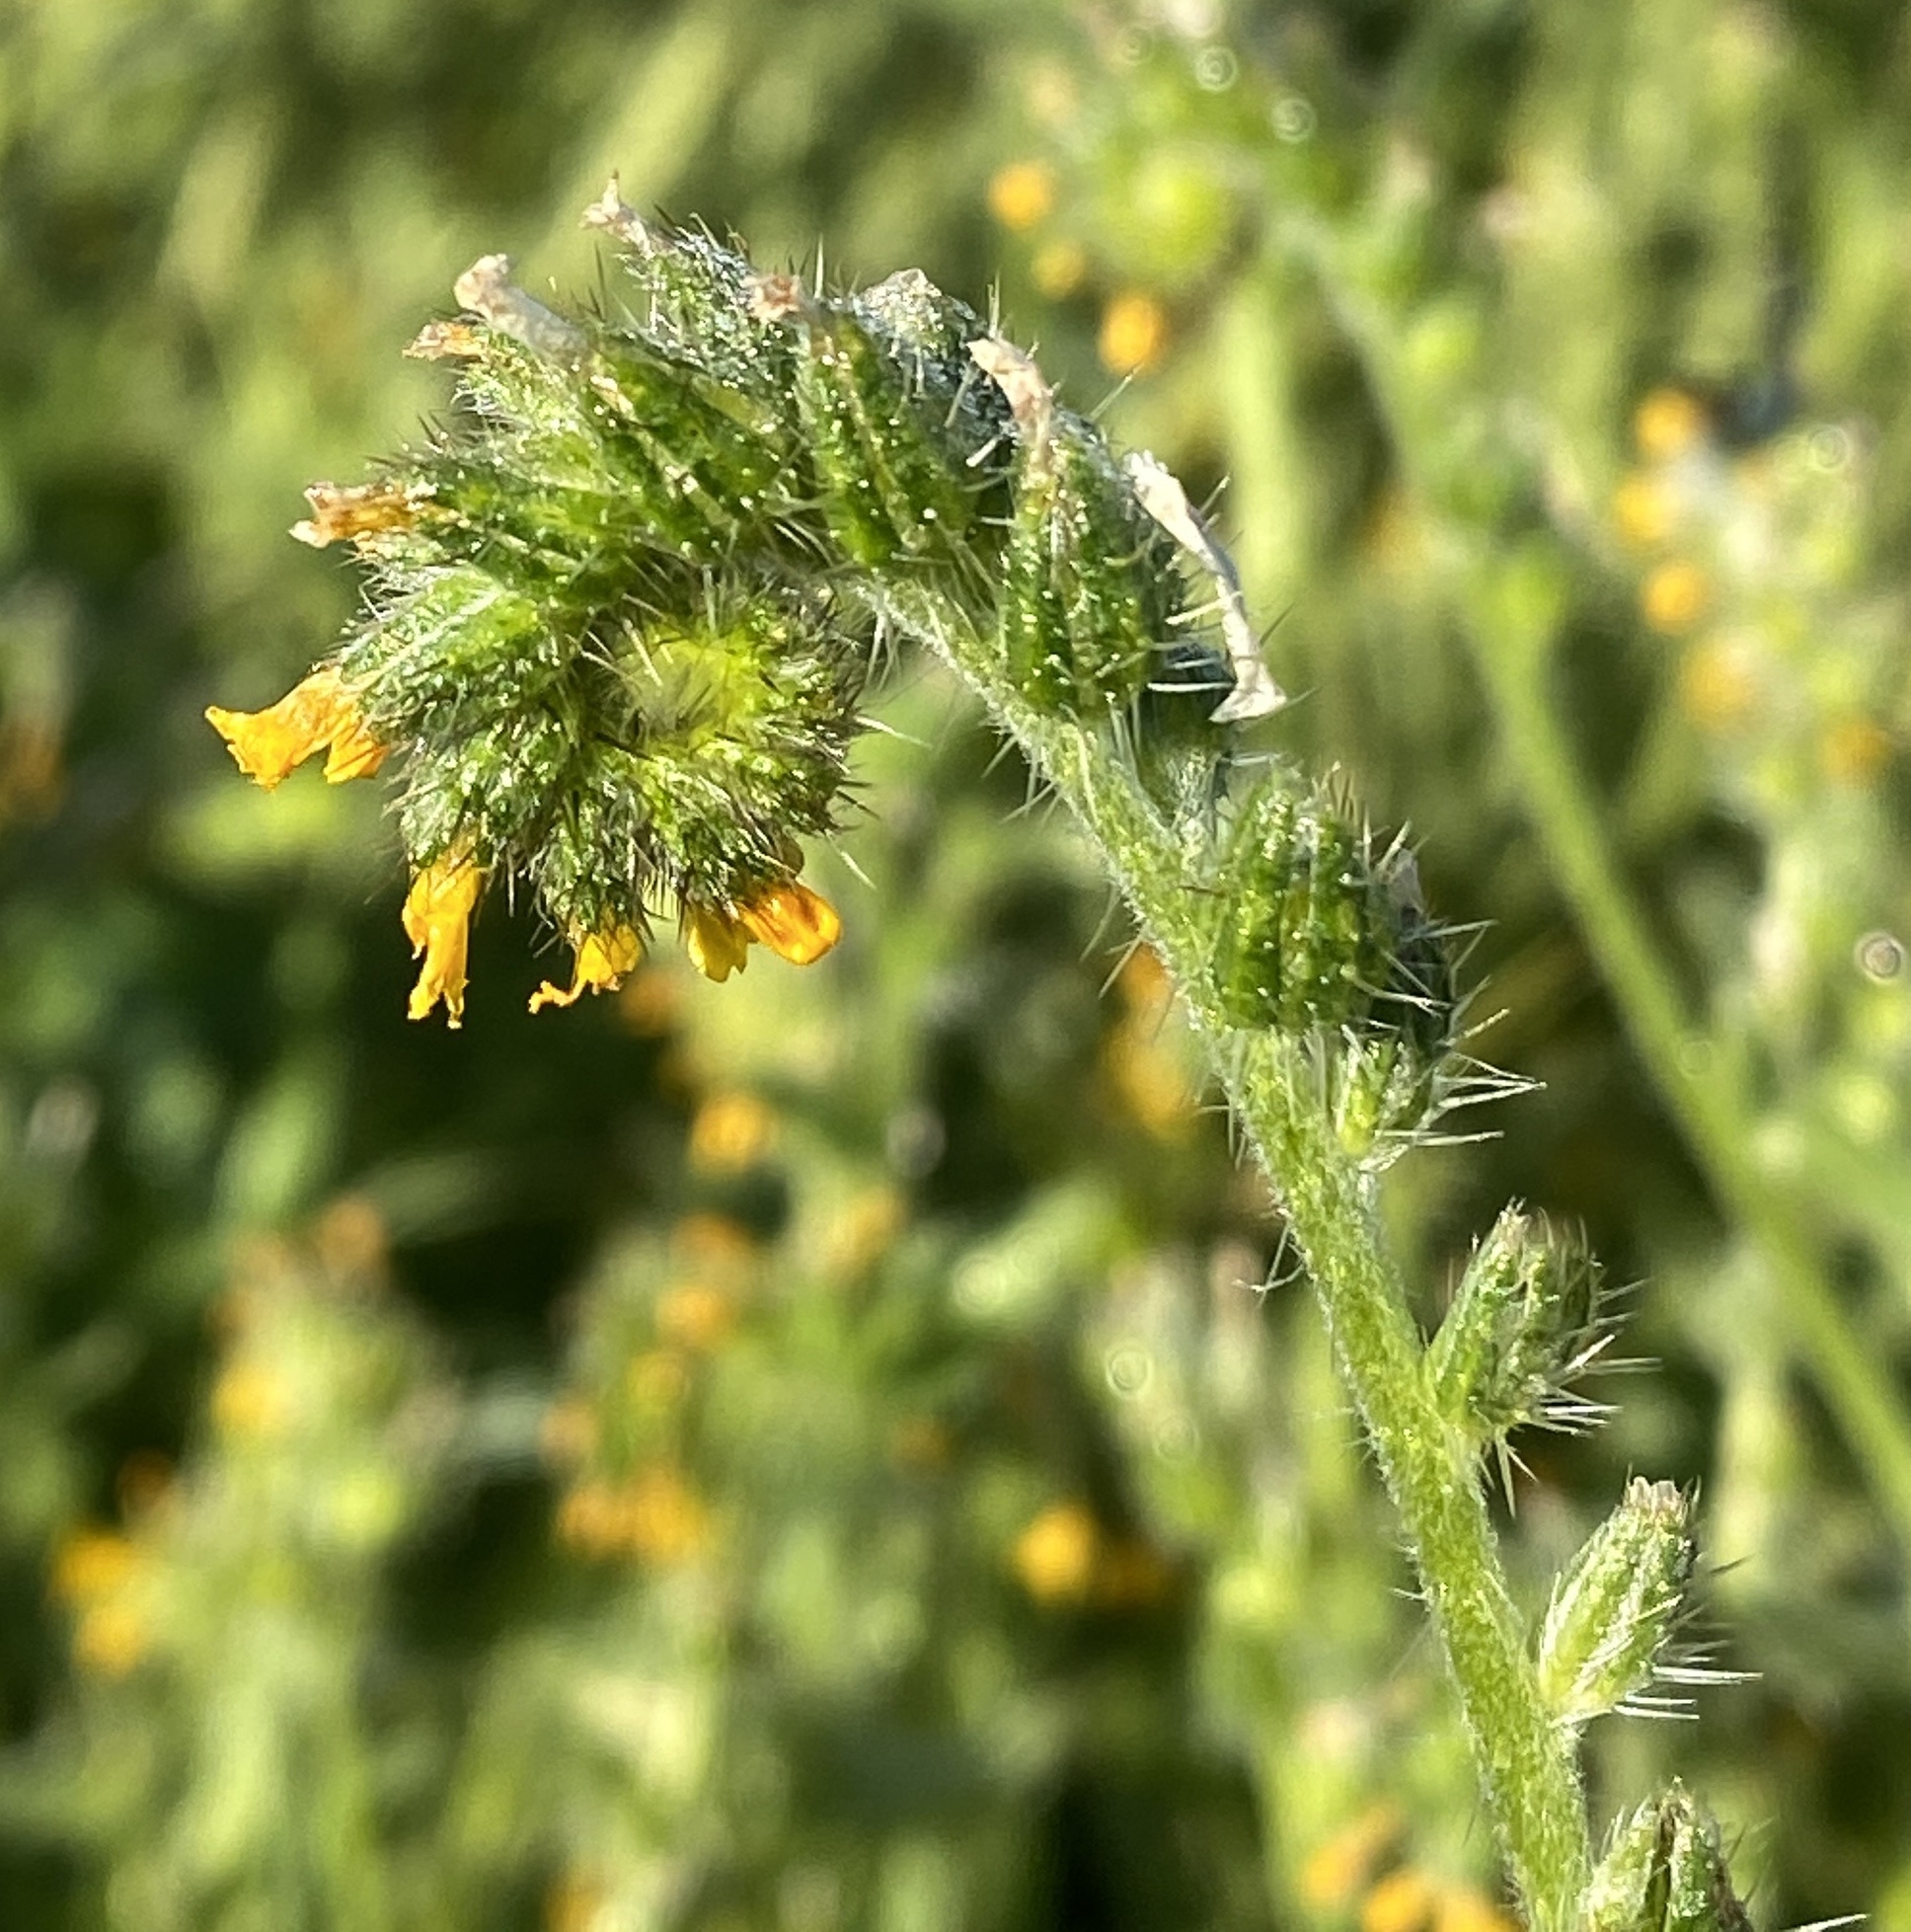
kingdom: Plantae
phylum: Tracheophyta
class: Magnoliopsida
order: Boraginales
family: Boraginaceae
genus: Amsinckia
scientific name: Amsinckia menziesii
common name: Menzies' fiddleneck
